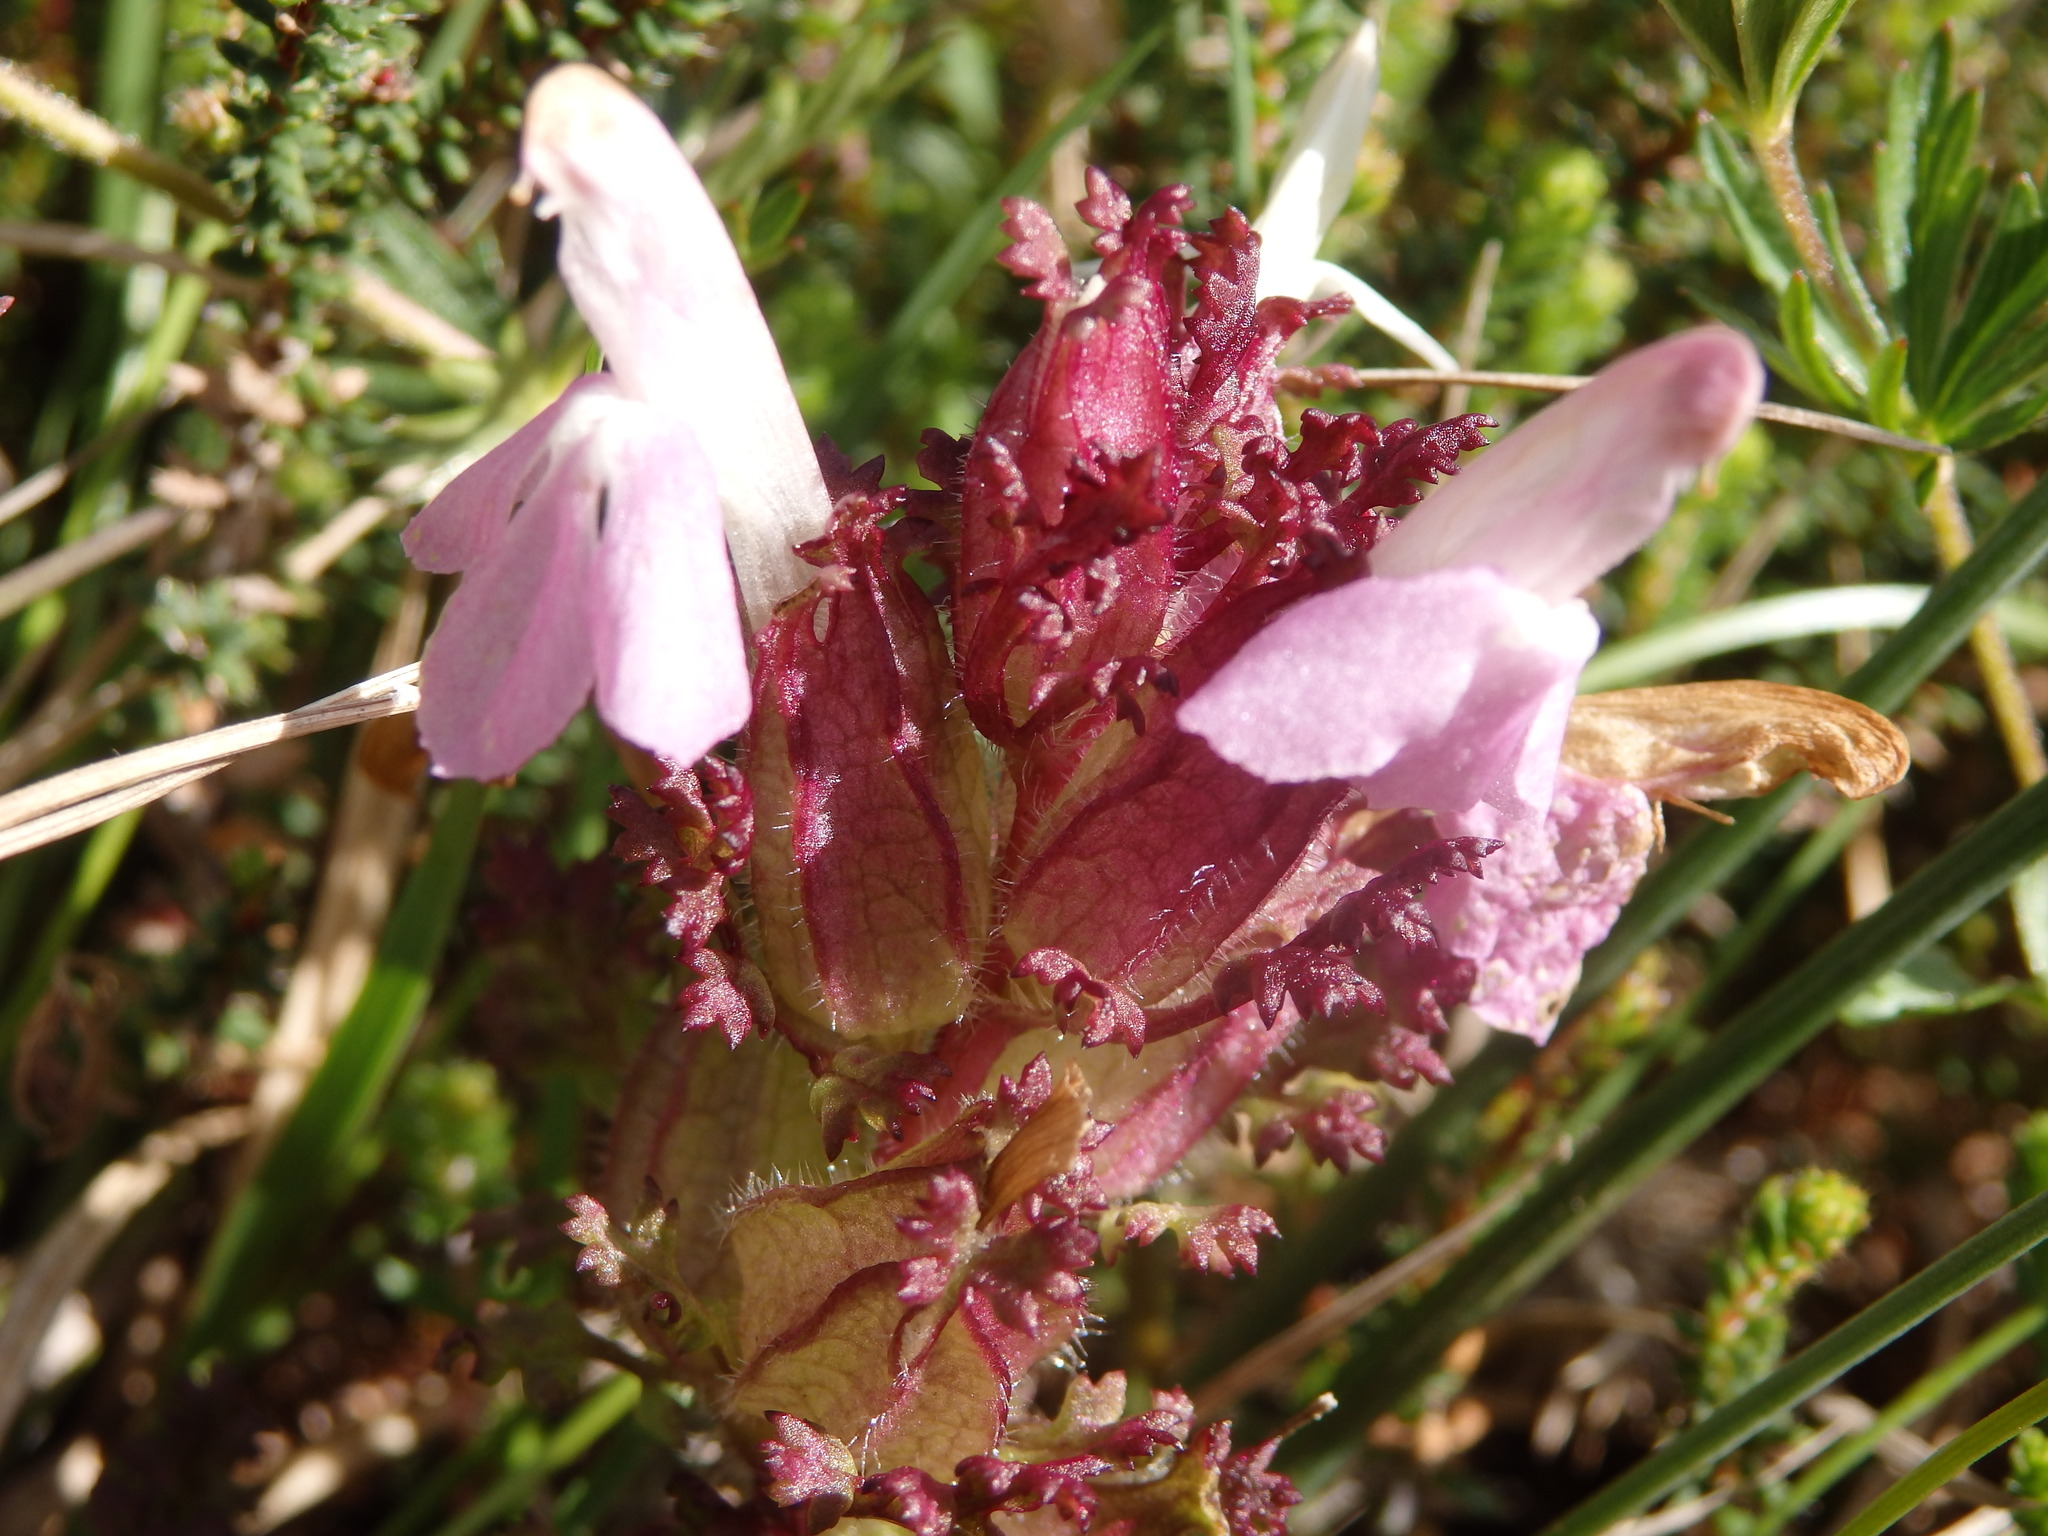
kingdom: Plantae
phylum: Tracheophyta
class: Magnoliopsida
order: Lamiales
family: Orobanchaceae
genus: Pedicularis
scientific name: Pedicularis sylvatica
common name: Lousewort
